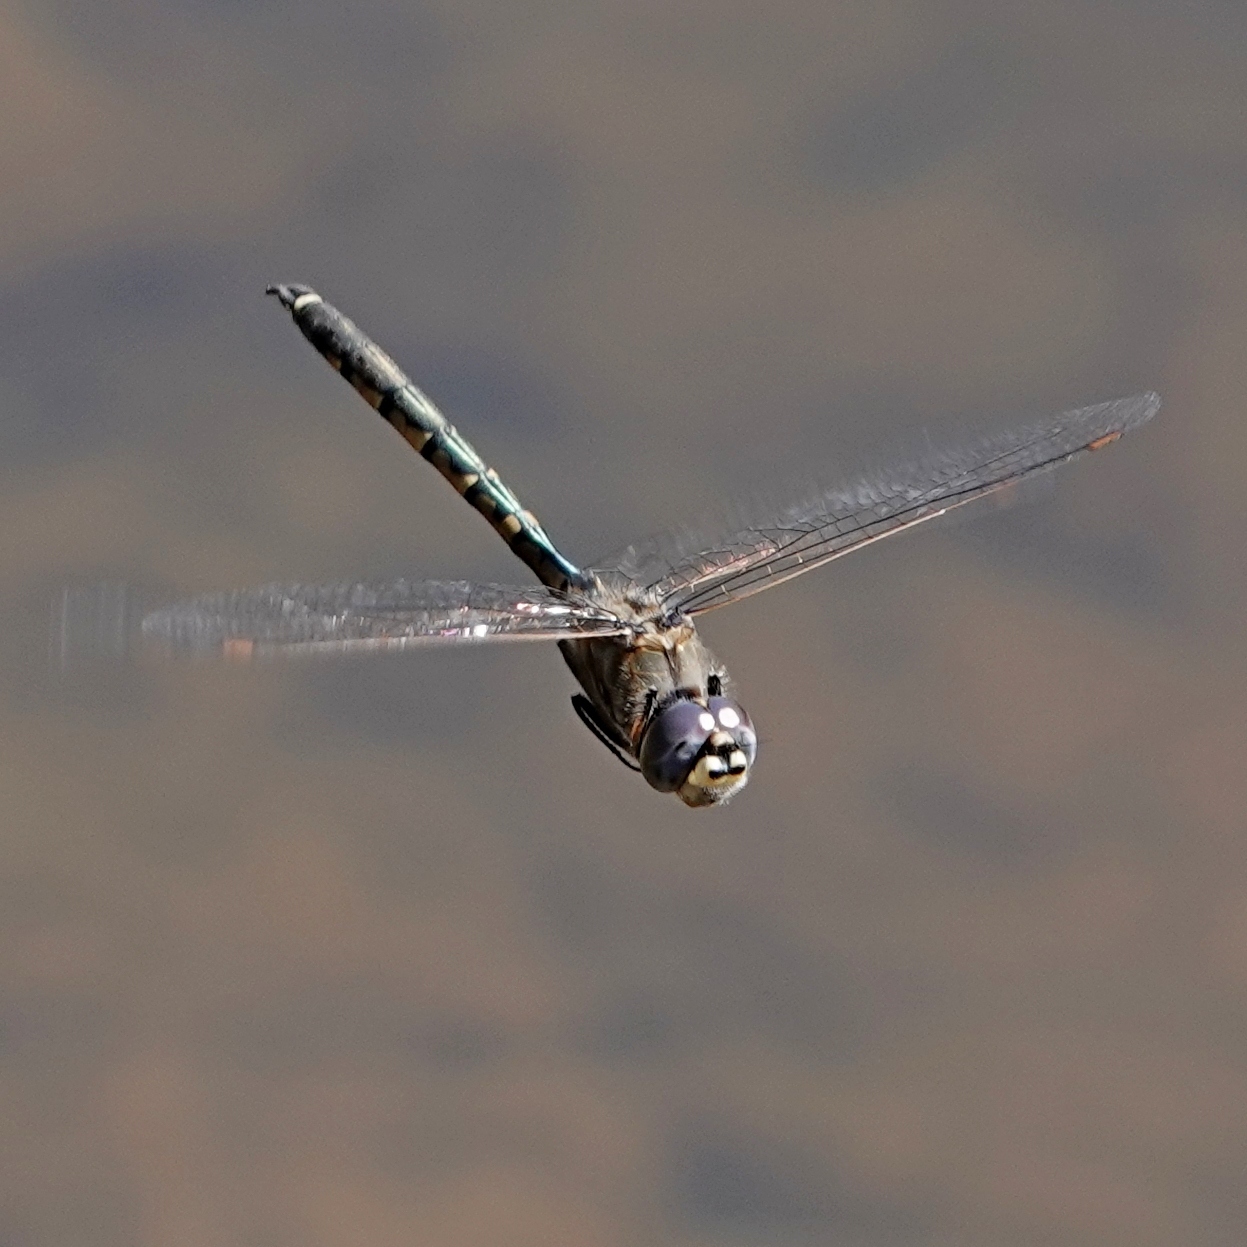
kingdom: Animalia
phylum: Arthropoda
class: Insecta
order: Odonata
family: Corduliidae
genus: Hemicordulia
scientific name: Hemicordulia tau
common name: Tau emerald
